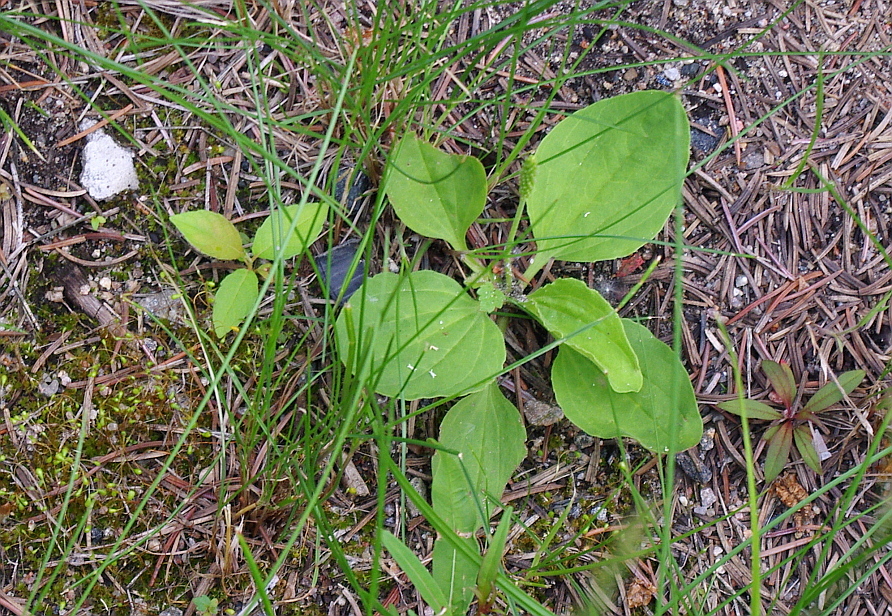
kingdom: Plantae
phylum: Tracheophyta
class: Magnoliopsida
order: Lamiales
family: Plantaginaceae
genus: Plantago
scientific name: Plantago major
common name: Common plantain
